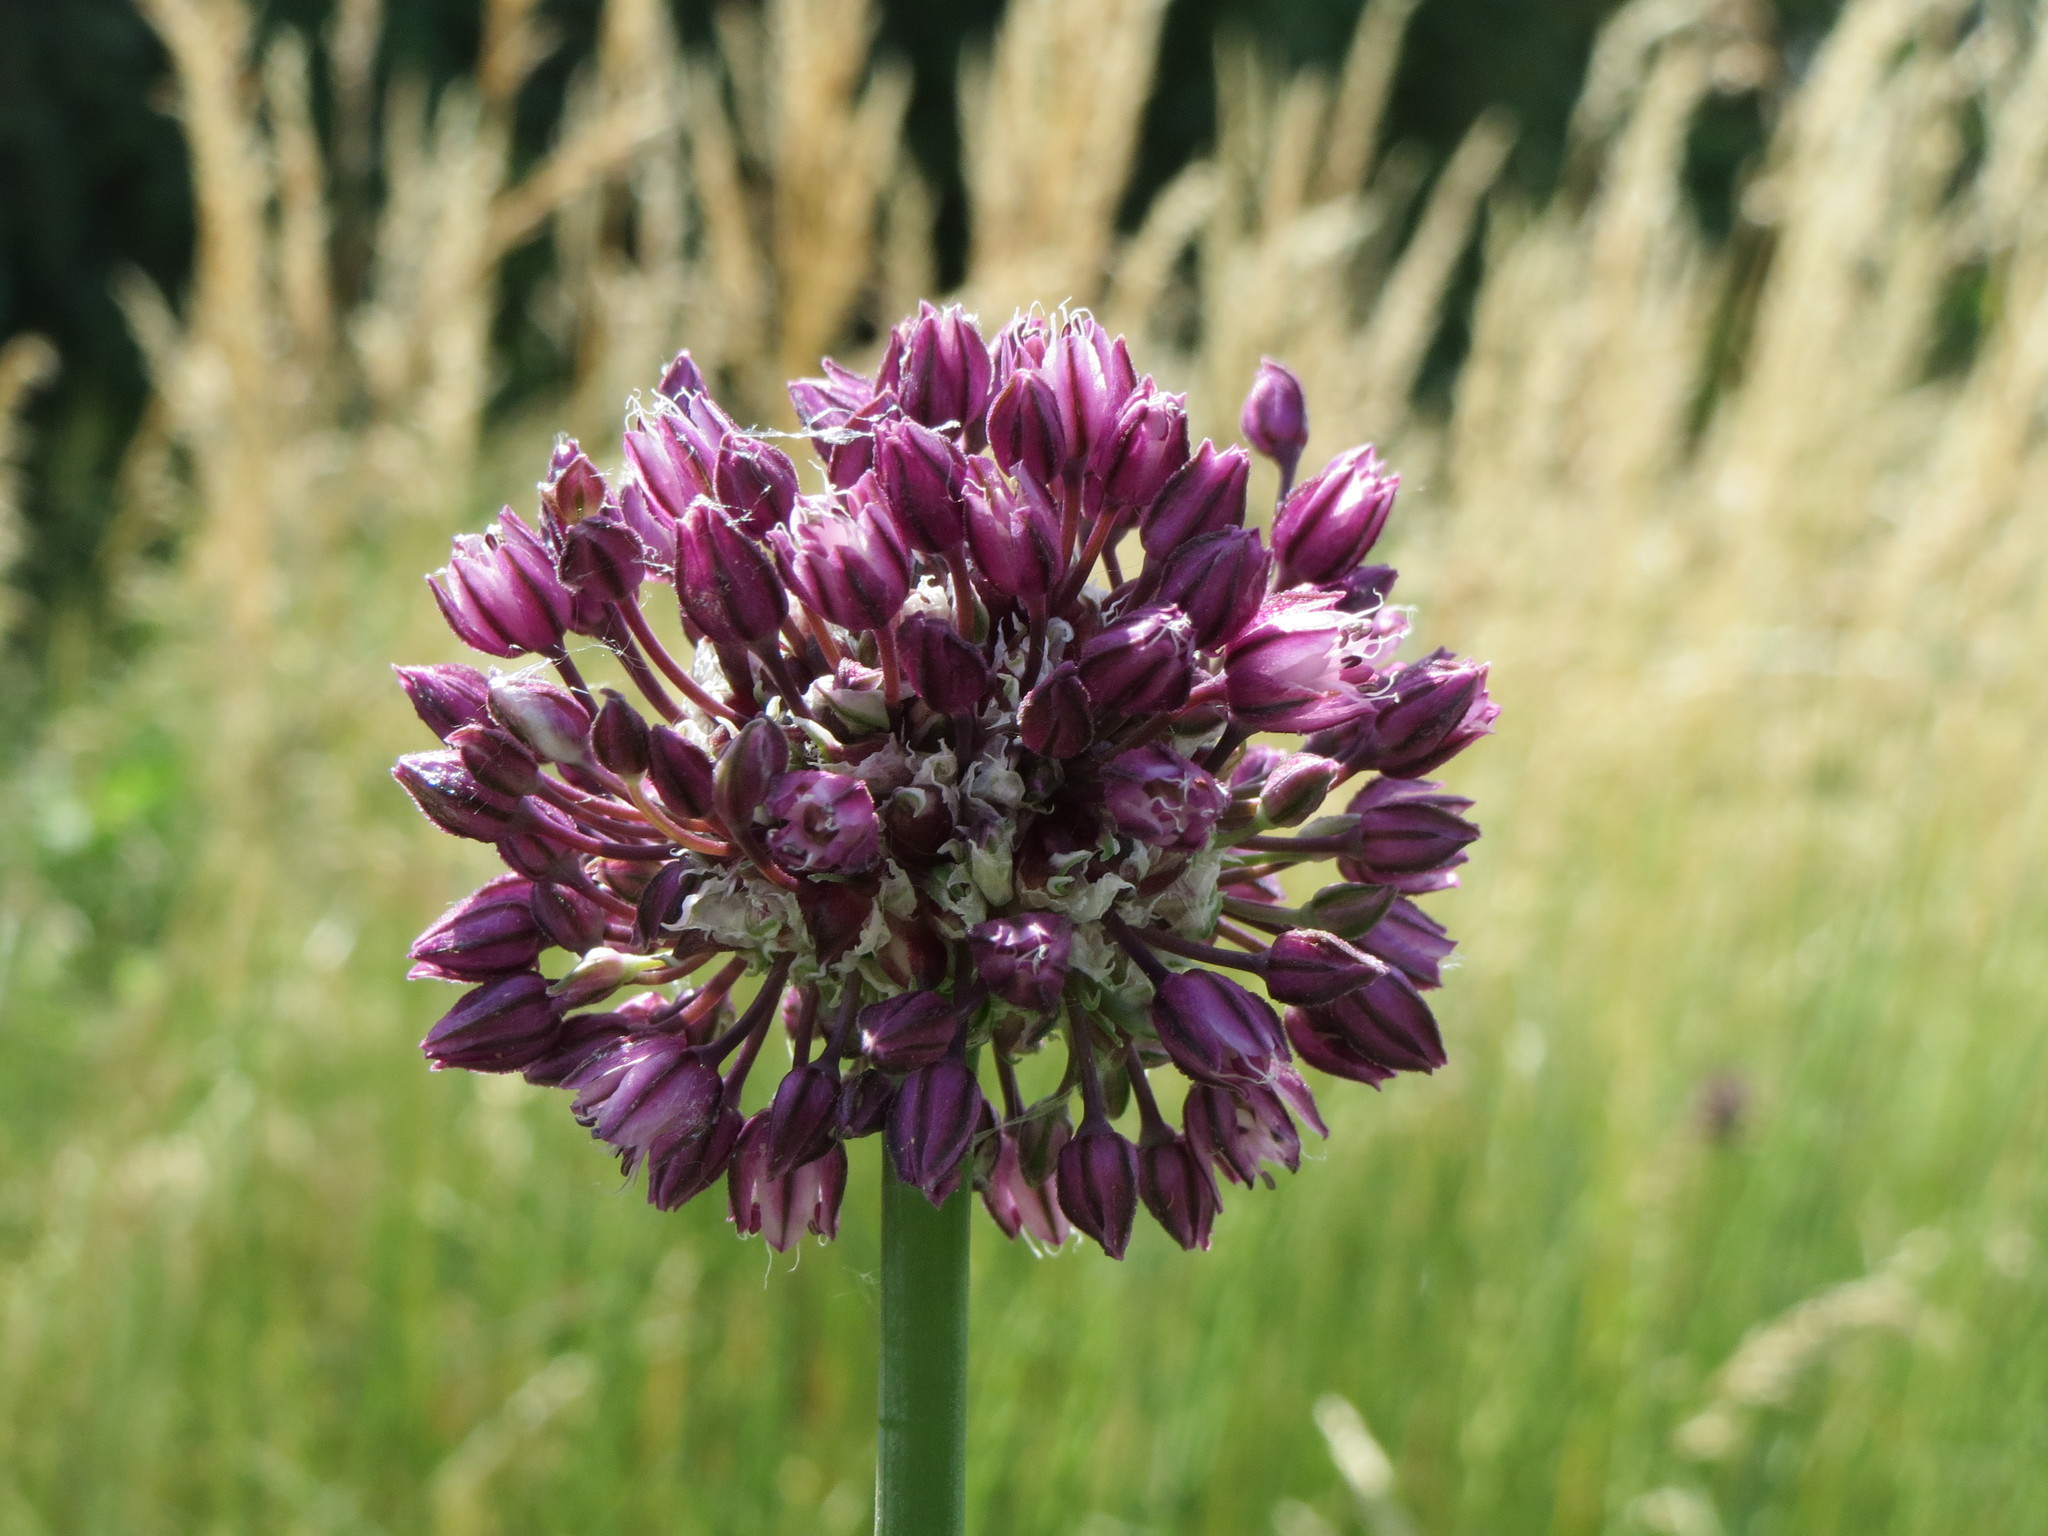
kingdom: Plantae
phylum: Tracheophyta
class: Liliopsida
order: Asparagales
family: Amaryllidaceae
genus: Allium
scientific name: Allium scorodoprasum
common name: Sand leek
